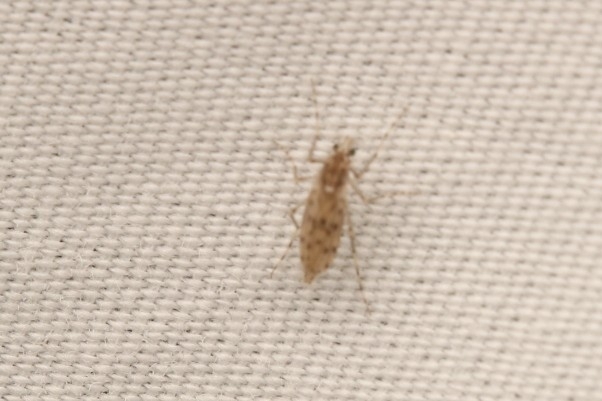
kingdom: Animalia
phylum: Arthropoda
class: Insecta
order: Diptera
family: Chaoboridae
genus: Chaoborus
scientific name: Chaoborus punctipennis
